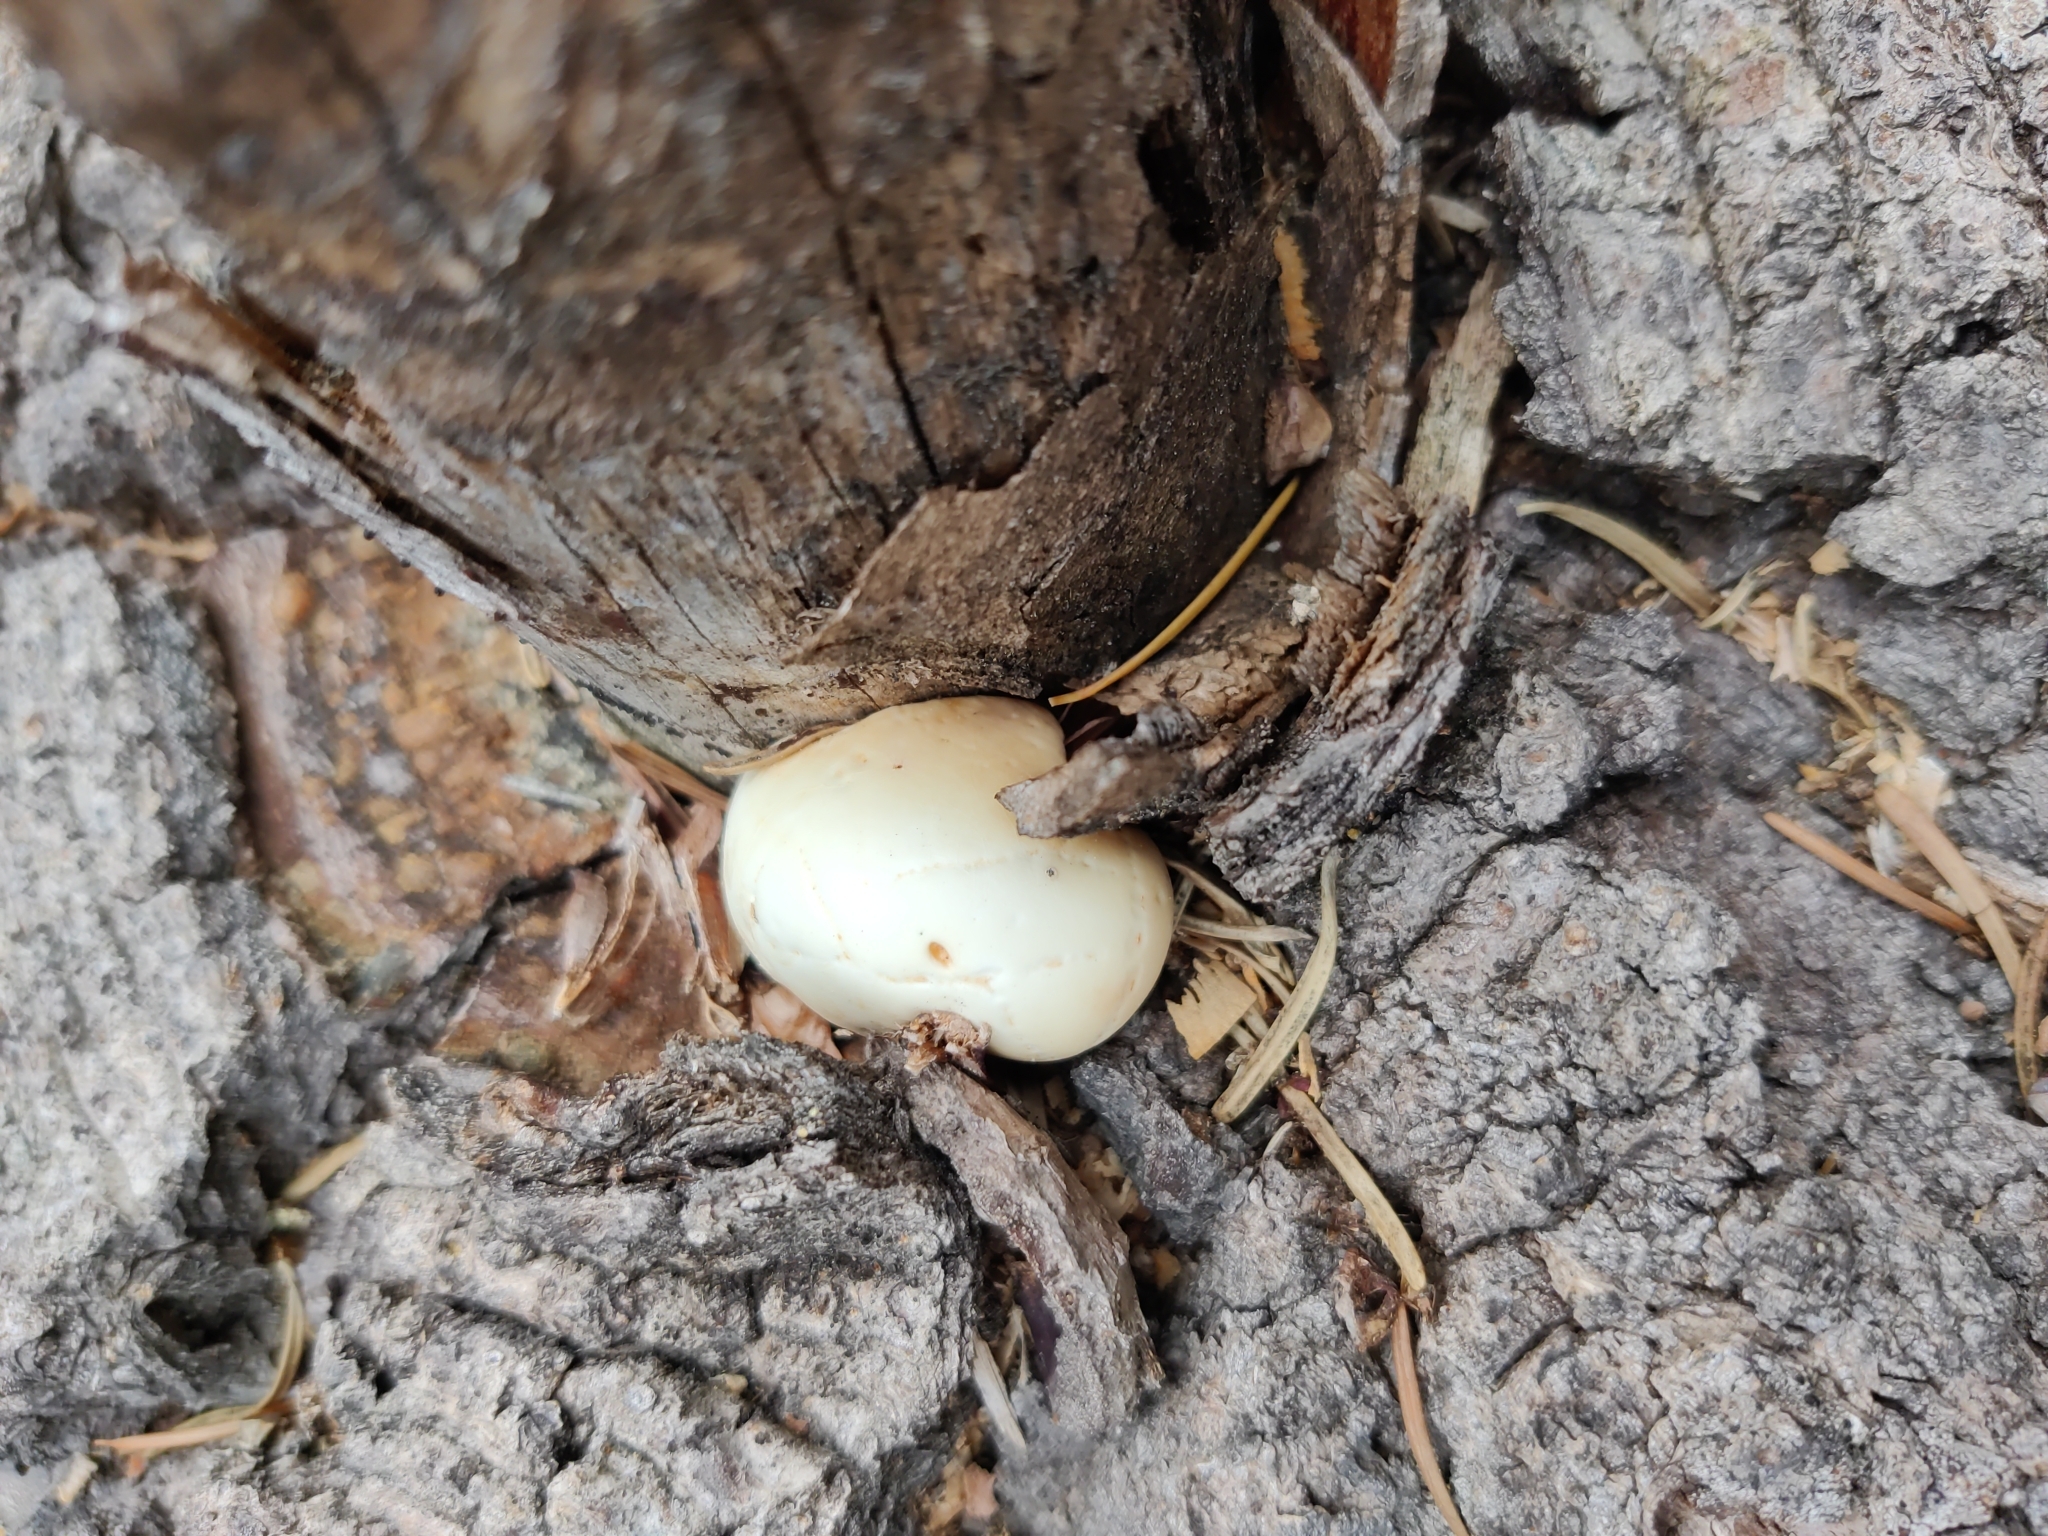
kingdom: Fungi
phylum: Basidiomycota
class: Agaricomycetes
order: Polyporales
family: Polyporaceae
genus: Cryptoporus
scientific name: Cryptoporus volvatus
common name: Veiled polypore
